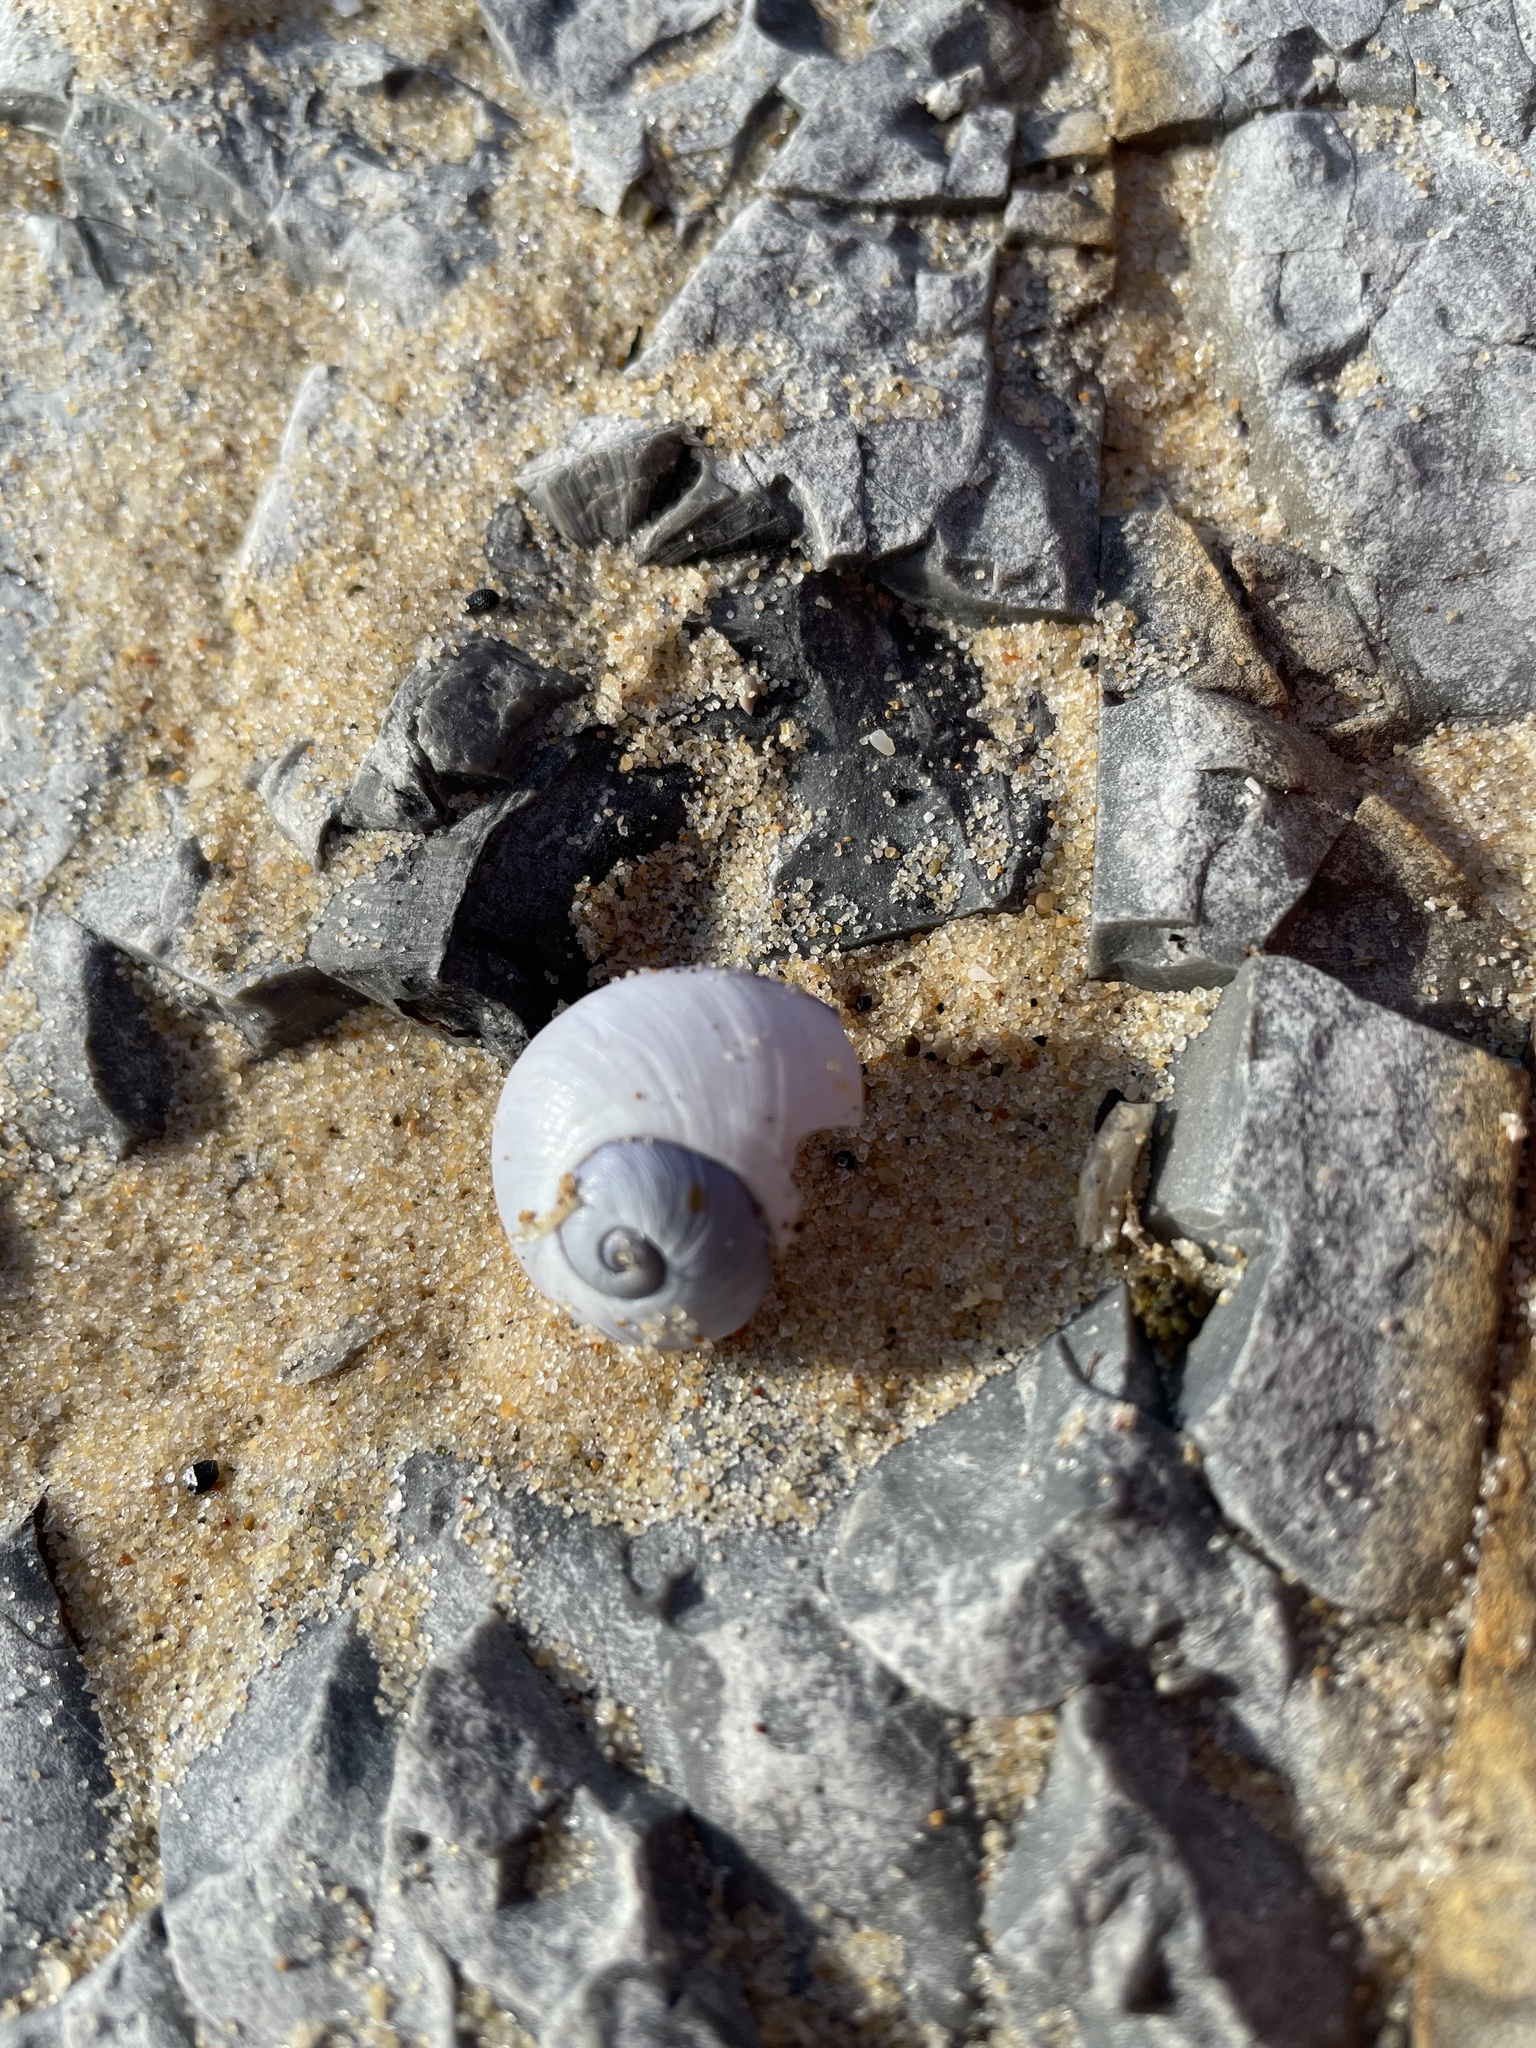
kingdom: Animalia
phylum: Mollusca
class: Gastropoda
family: Epitoniidae
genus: Janthina
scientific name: Janthina janthina
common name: Common janthina
